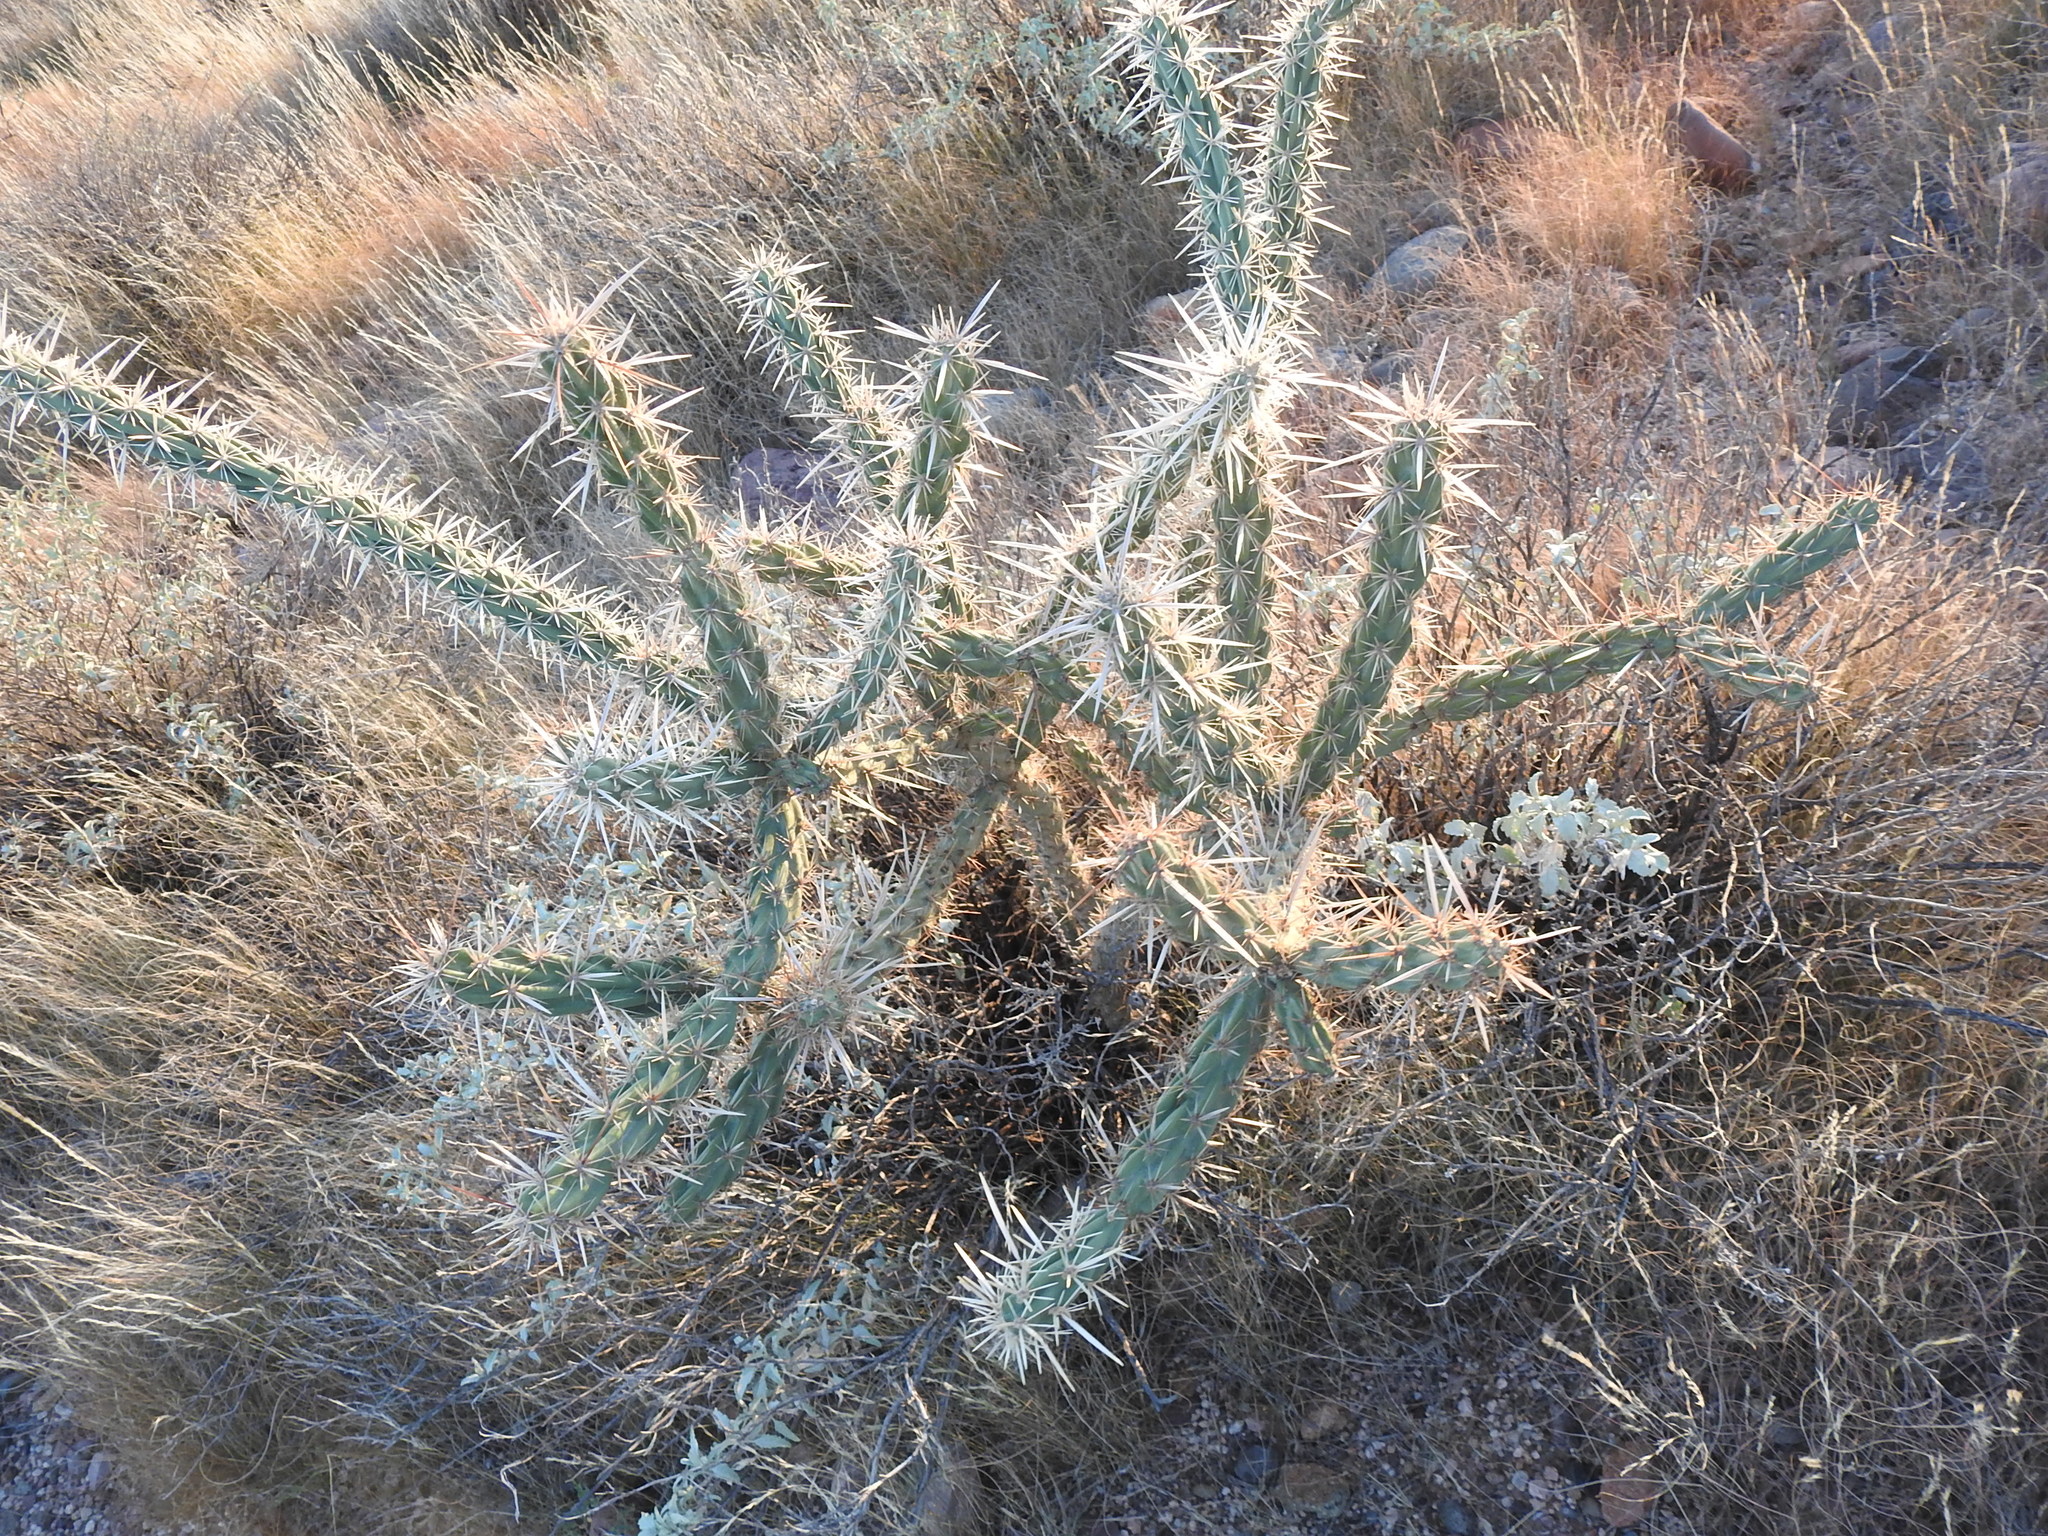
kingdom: Plantae
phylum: Tracheophyta
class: Magnoliopsida
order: Caryophyllales
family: Cactaceae
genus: Cylindropuntia
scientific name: Cylindropuntia acanthocarpa
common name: Buckhorn cholla
